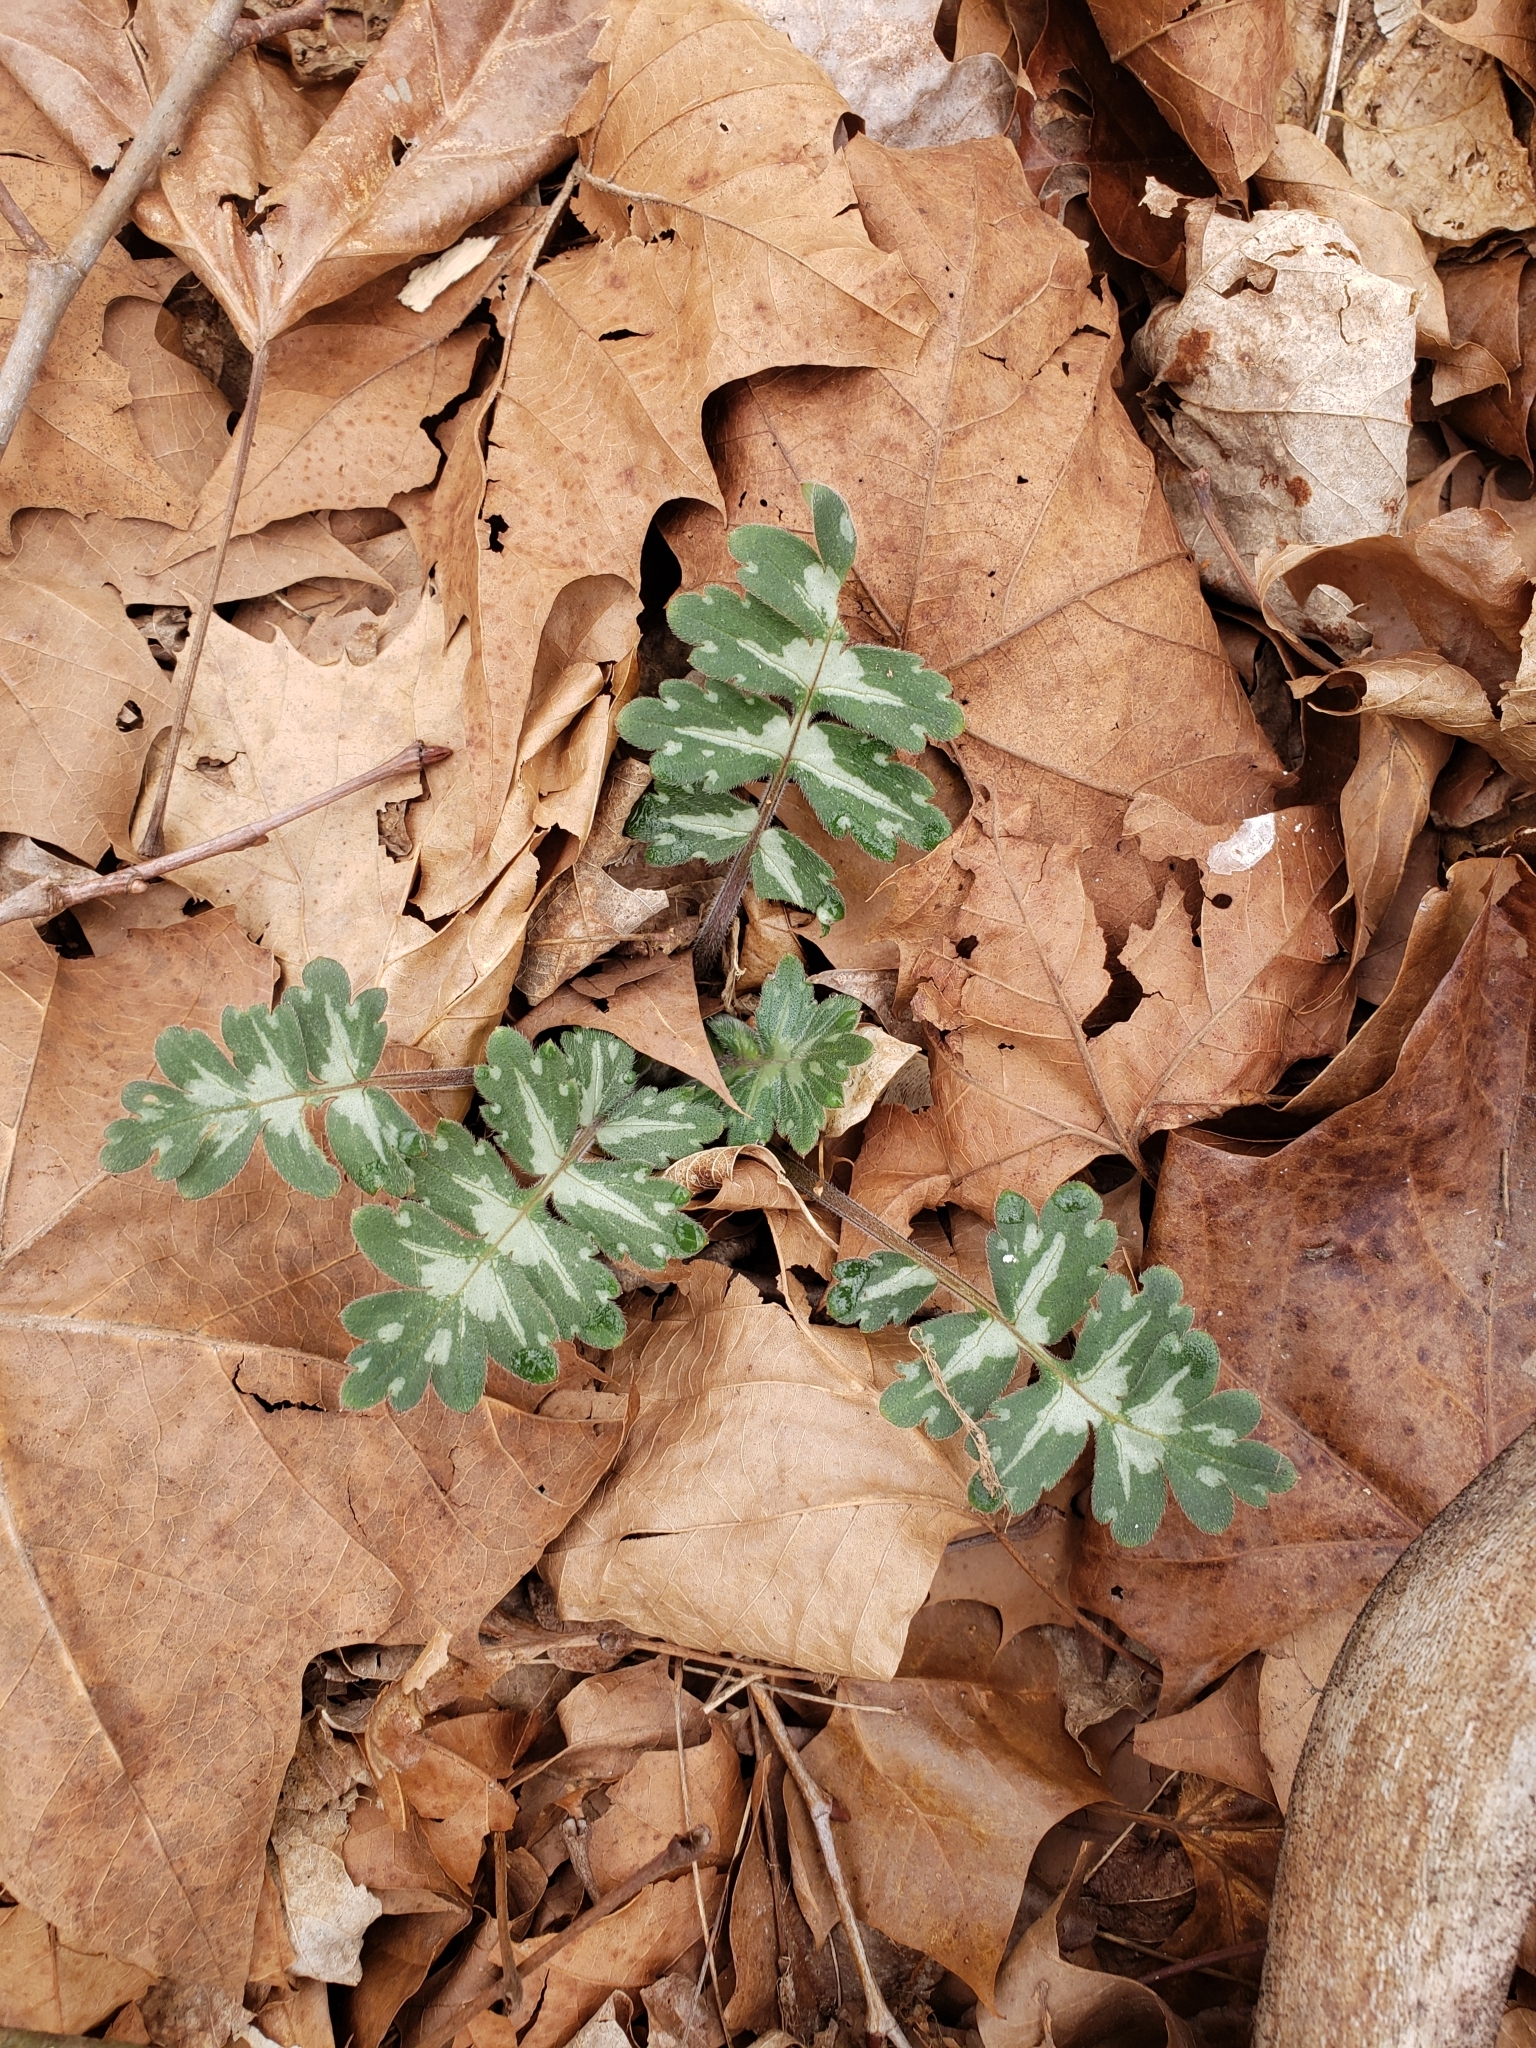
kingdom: Plantae
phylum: Tracheophyta
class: Magnoliopsida
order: Boraginales
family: Hydrophyllaceae
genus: Hydrophyllum
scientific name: Hydrophyllum macrophyllum
